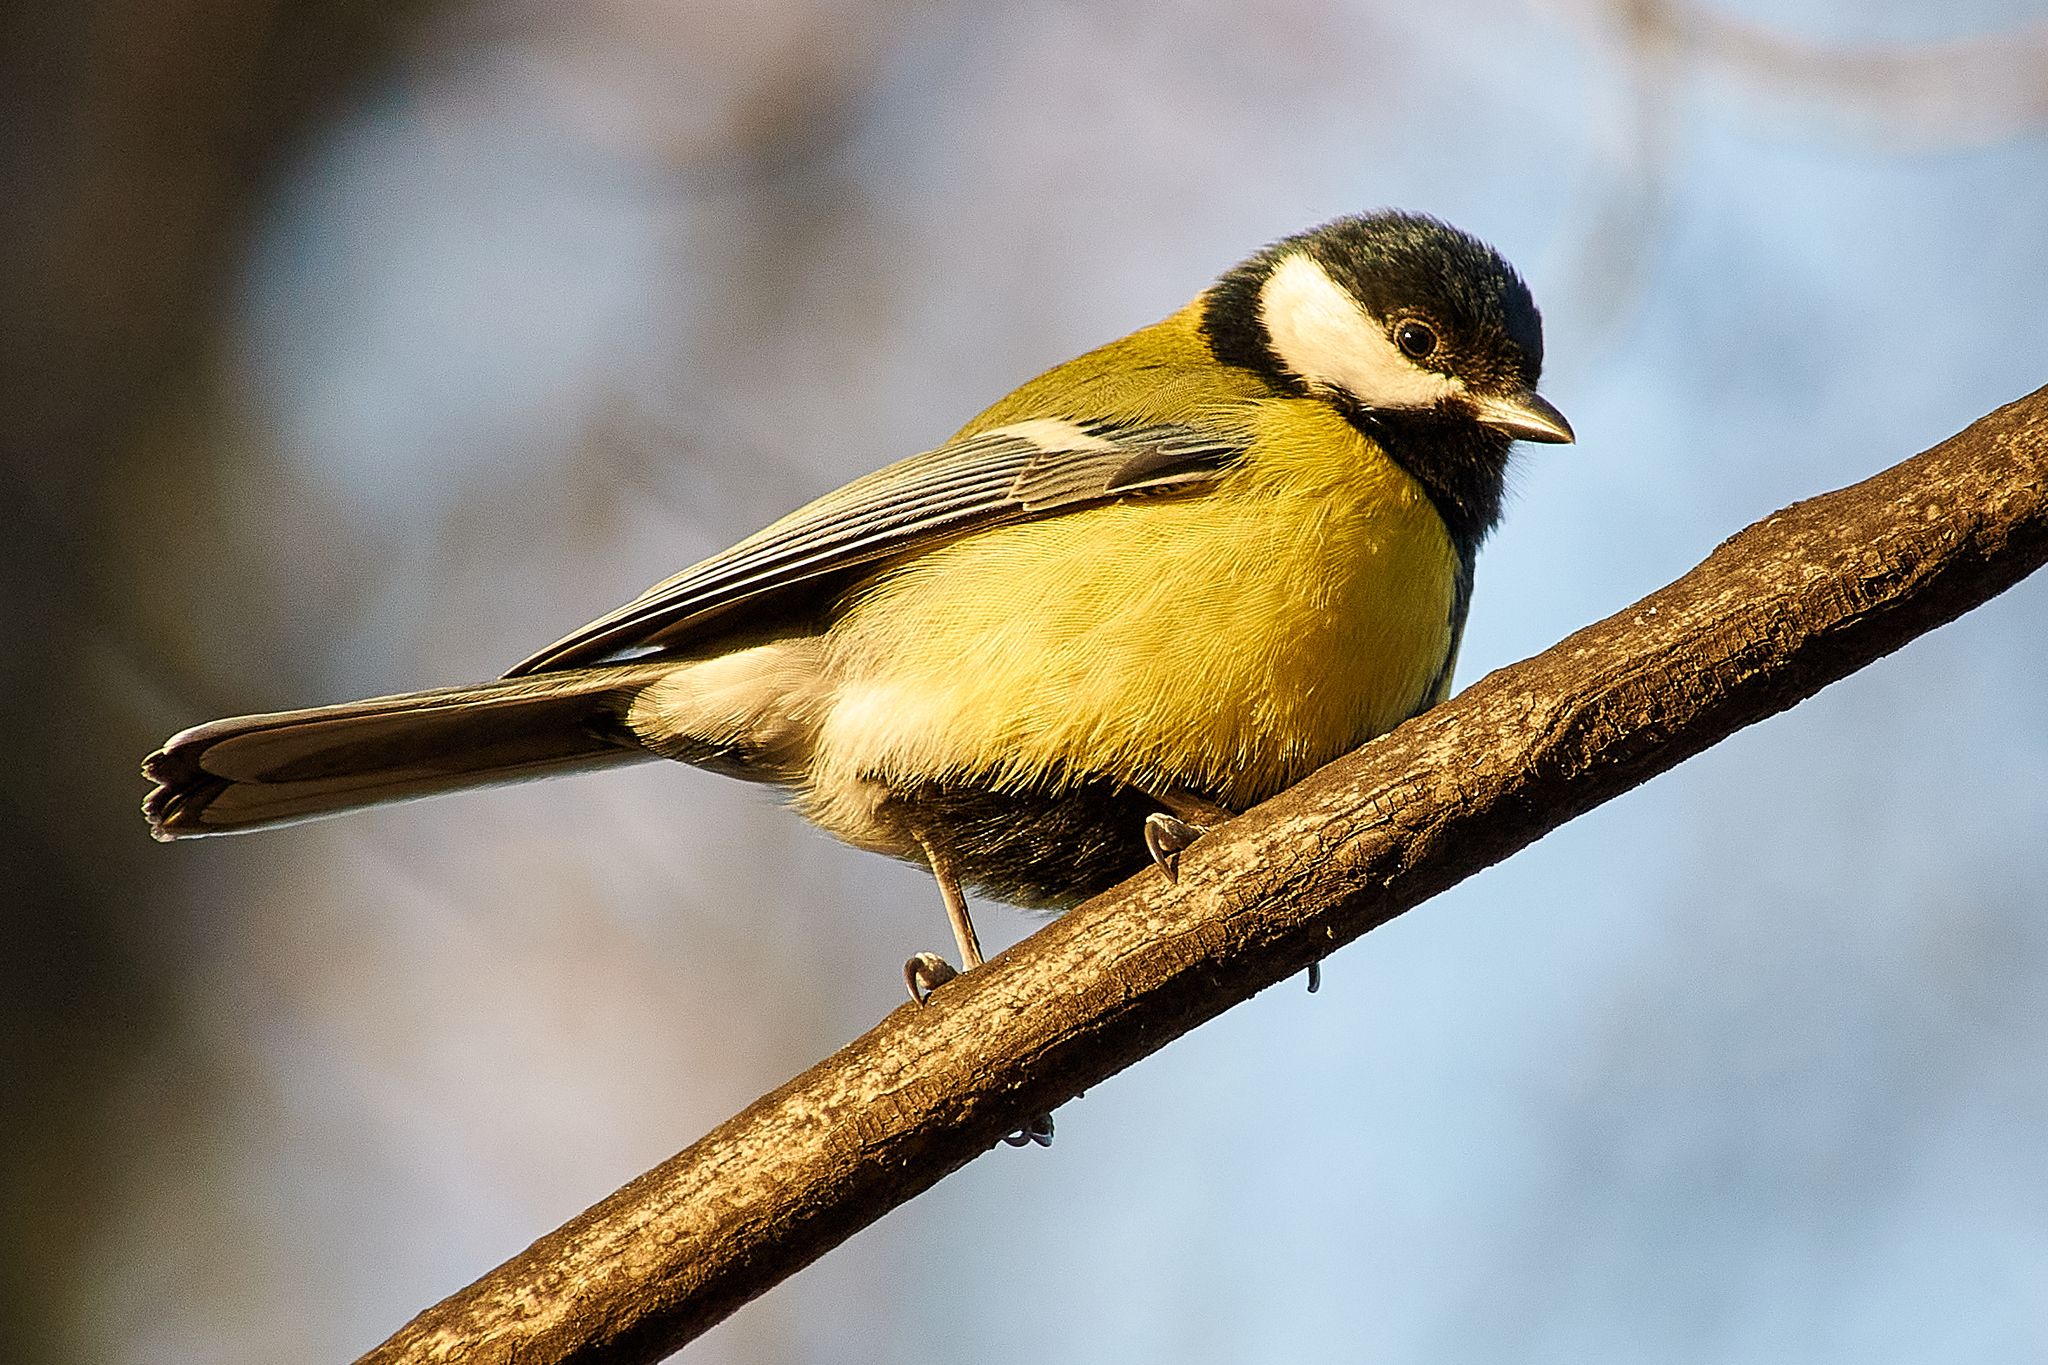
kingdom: Animalia
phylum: Chordata
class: Aves
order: Passeriformes
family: Paridae
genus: Parus
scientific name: Parus major
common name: Great tit
